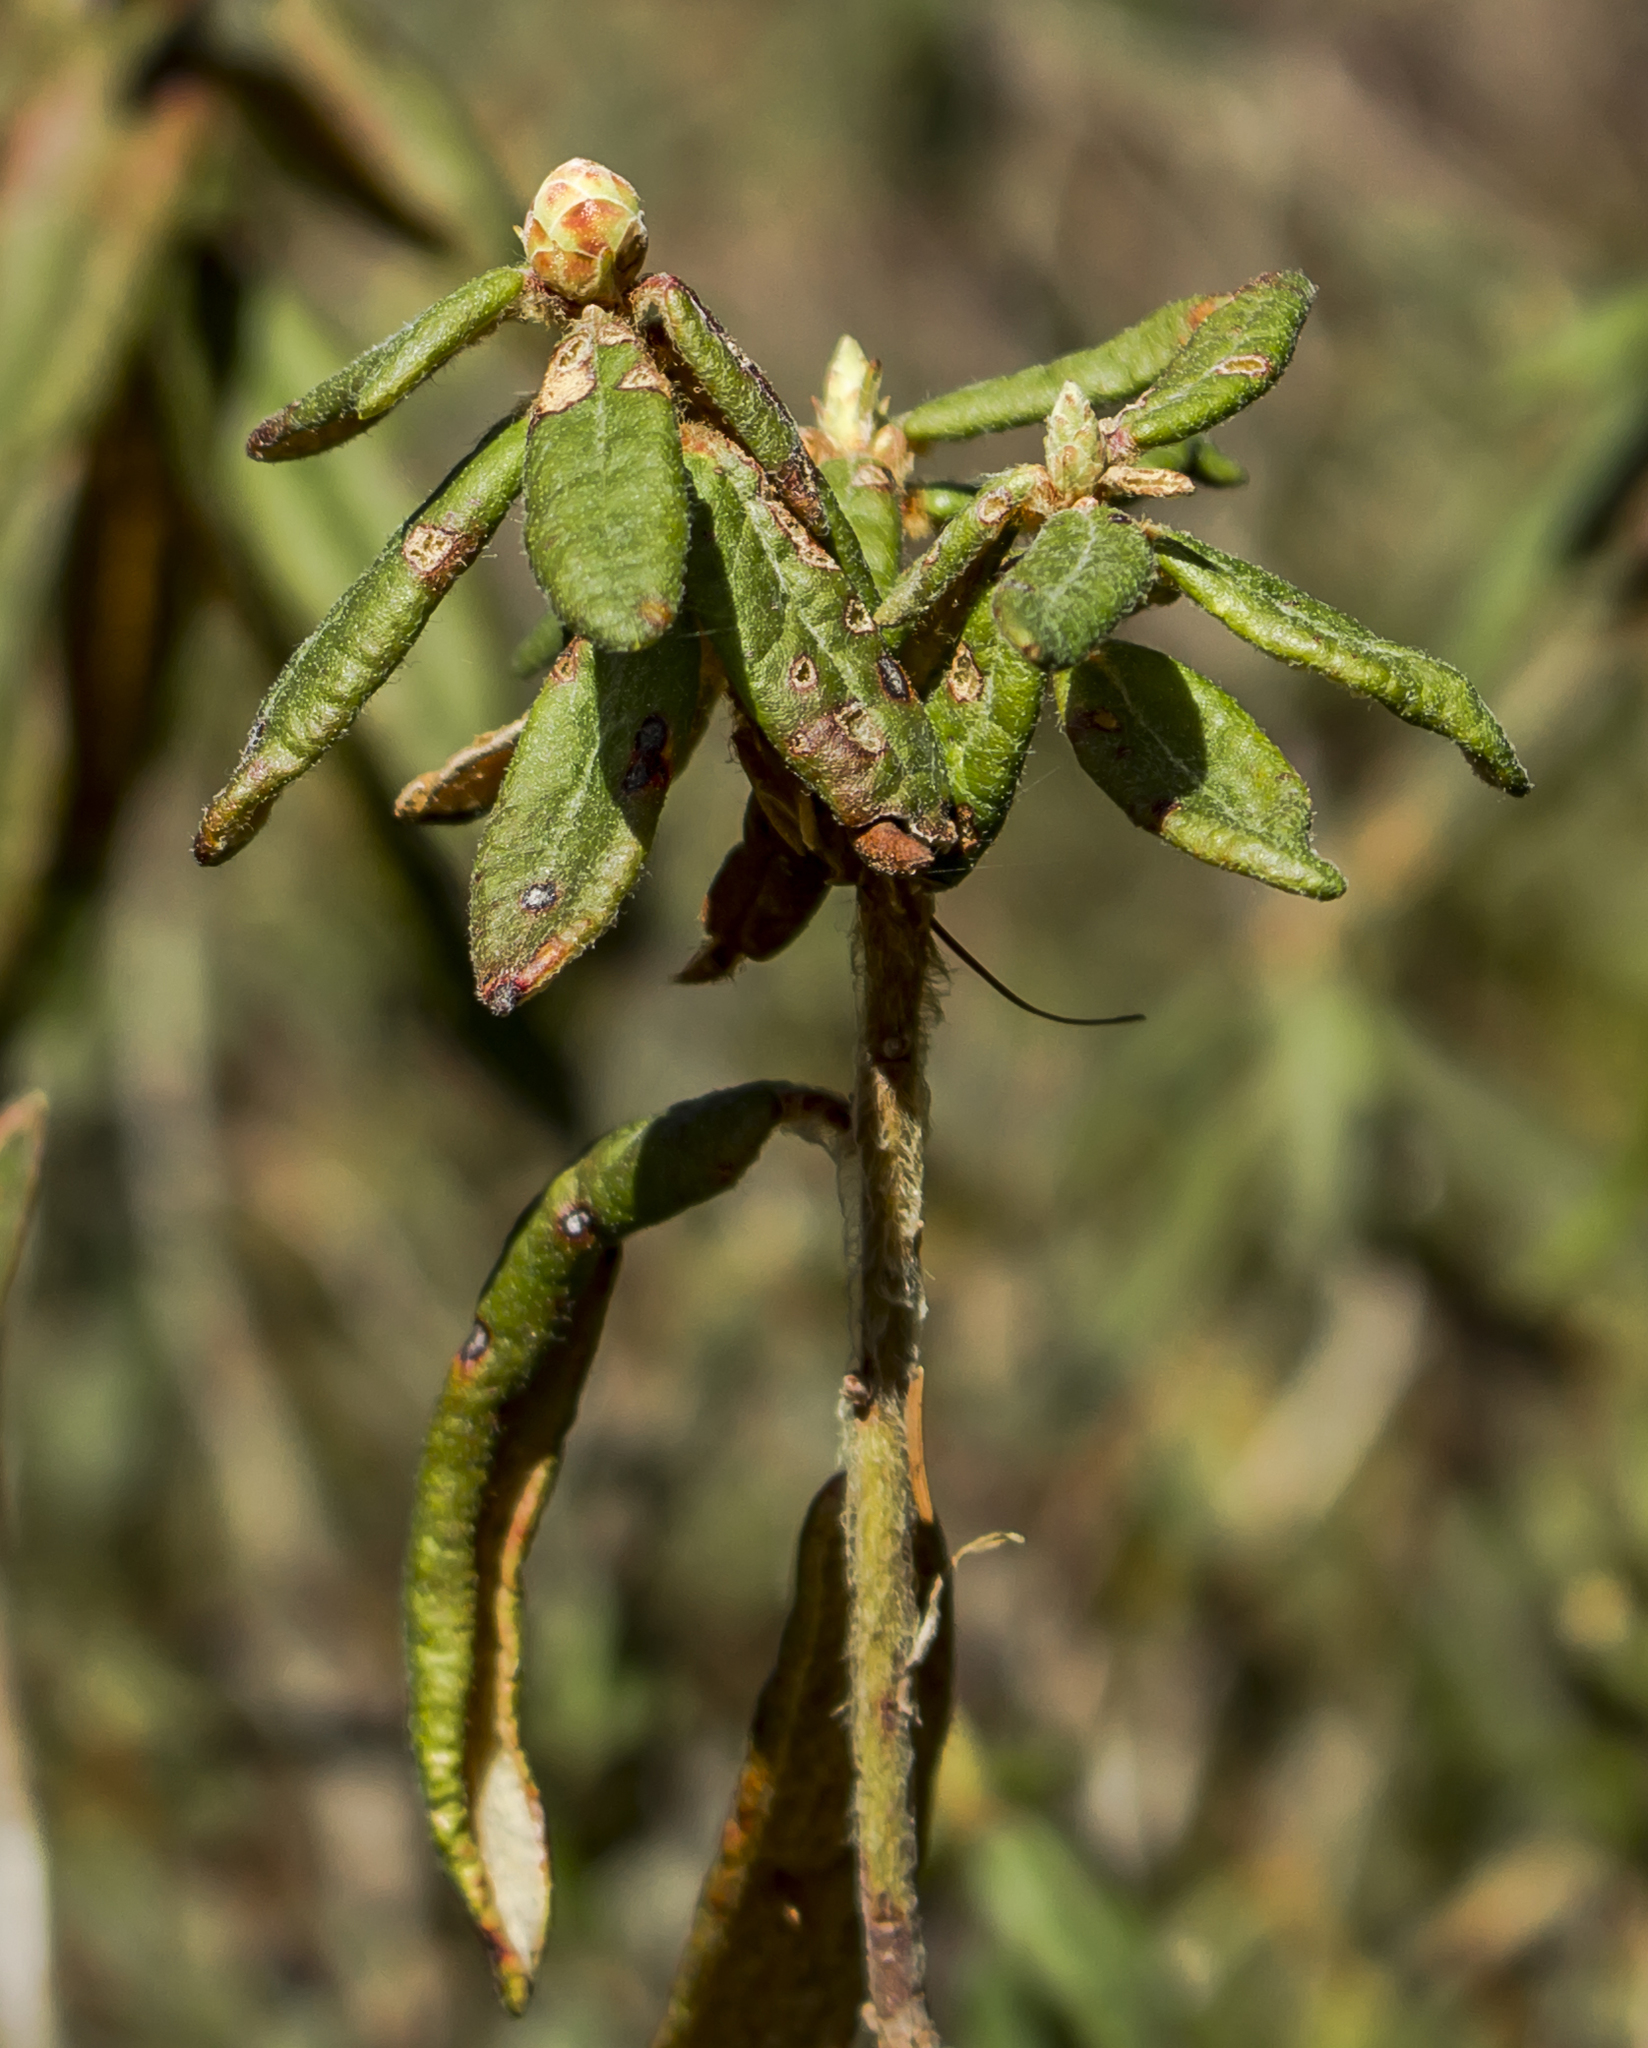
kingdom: Plantae
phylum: Tracheophyta
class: Magnoliopsida
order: Ericales
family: Ericaceae
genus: Rhododendron
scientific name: Rhododendron groenlandicum
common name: Bog labrador tea
